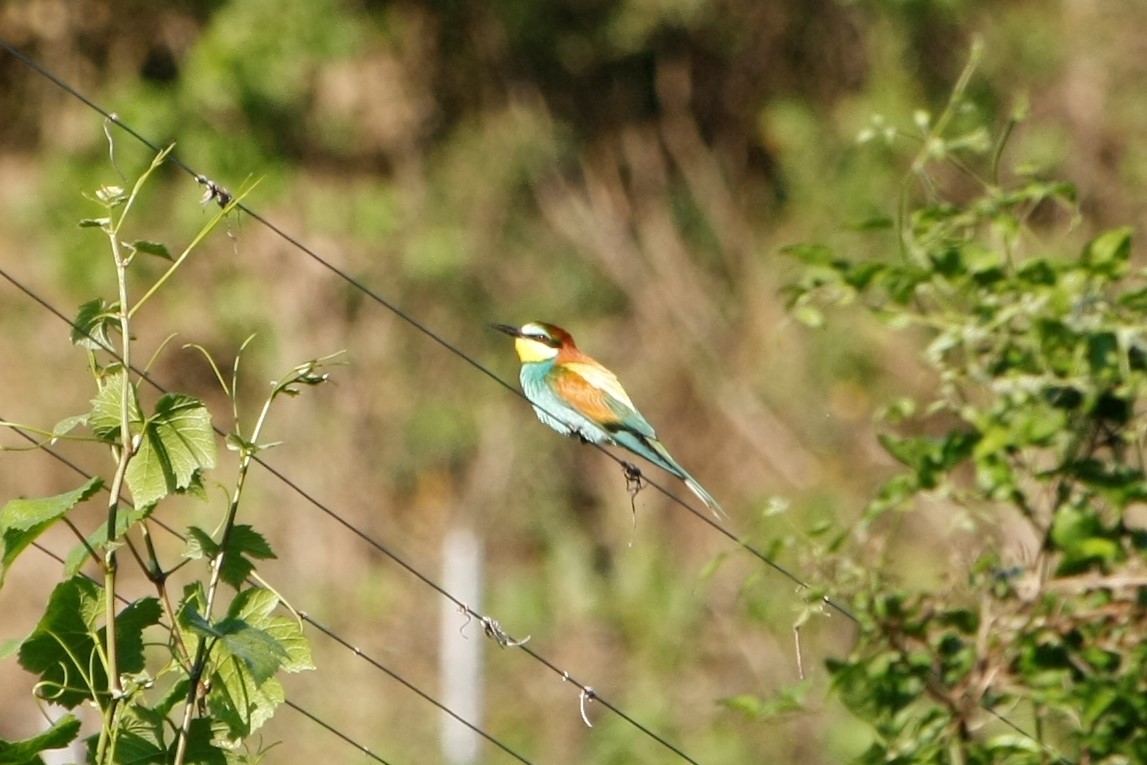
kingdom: Animalia
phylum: Chordata
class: Aves
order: Coraciiformes
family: Meropidae
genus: Merops
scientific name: Merops apiaster
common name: European bee-eater
